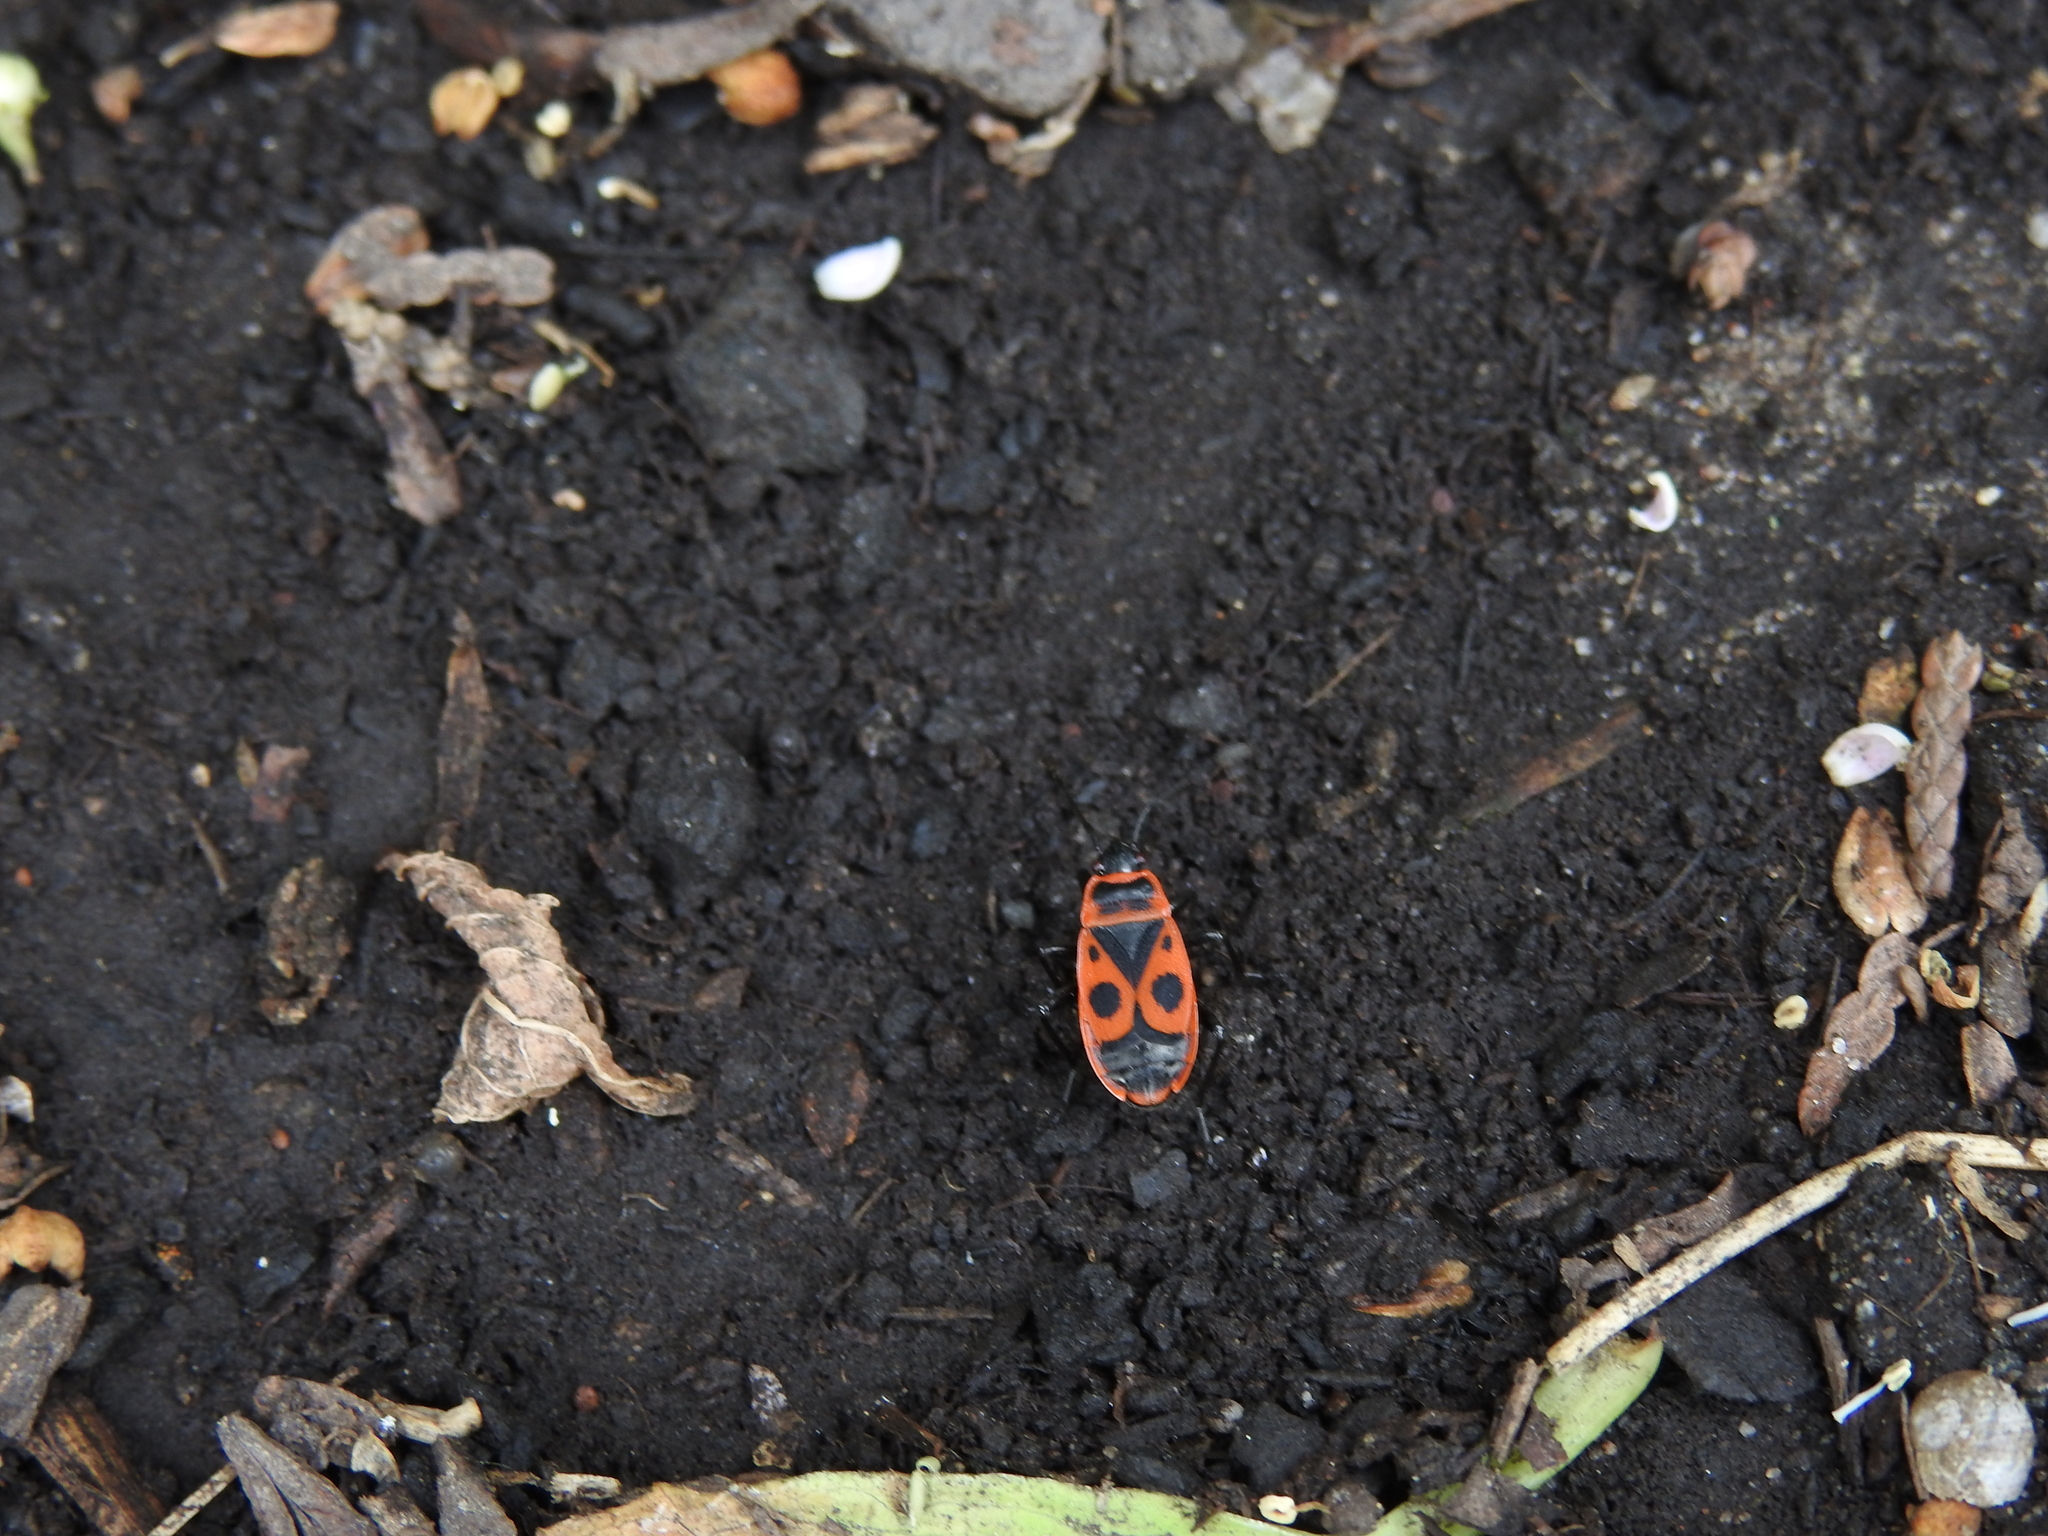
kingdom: Animalia
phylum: Arthropoda
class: Insecta
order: Hemiptera
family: Pyrrhocoridae
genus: Pyrrhocoris
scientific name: Pyrrhocoris apterus
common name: Firebug
